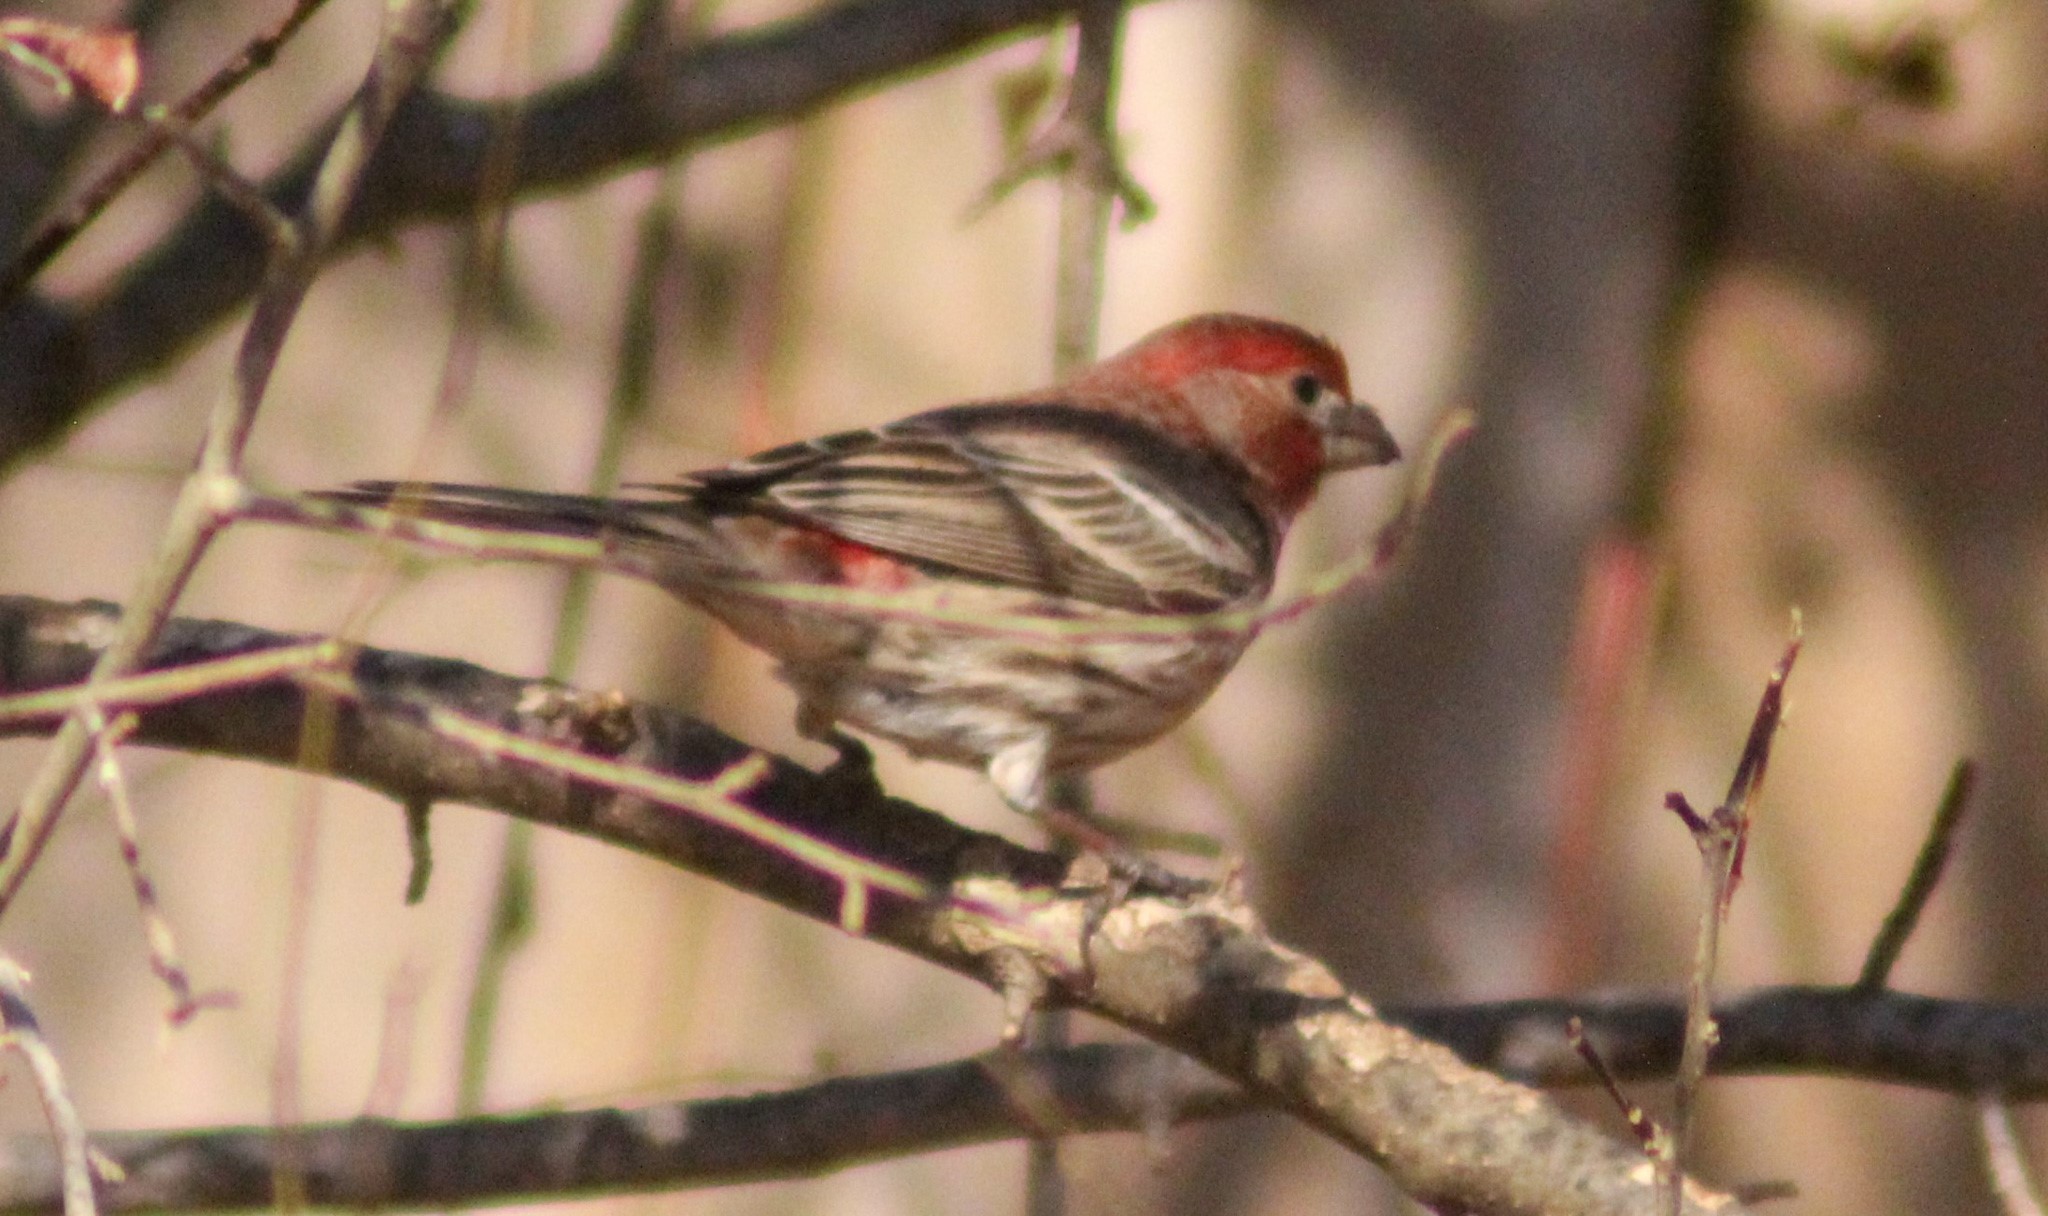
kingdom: Animalia
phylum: Chordata
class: Aves
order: Passeriformes
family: Fringillidae
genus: Haemorhous
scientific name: Haemorhous mexicanus
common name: House finch
